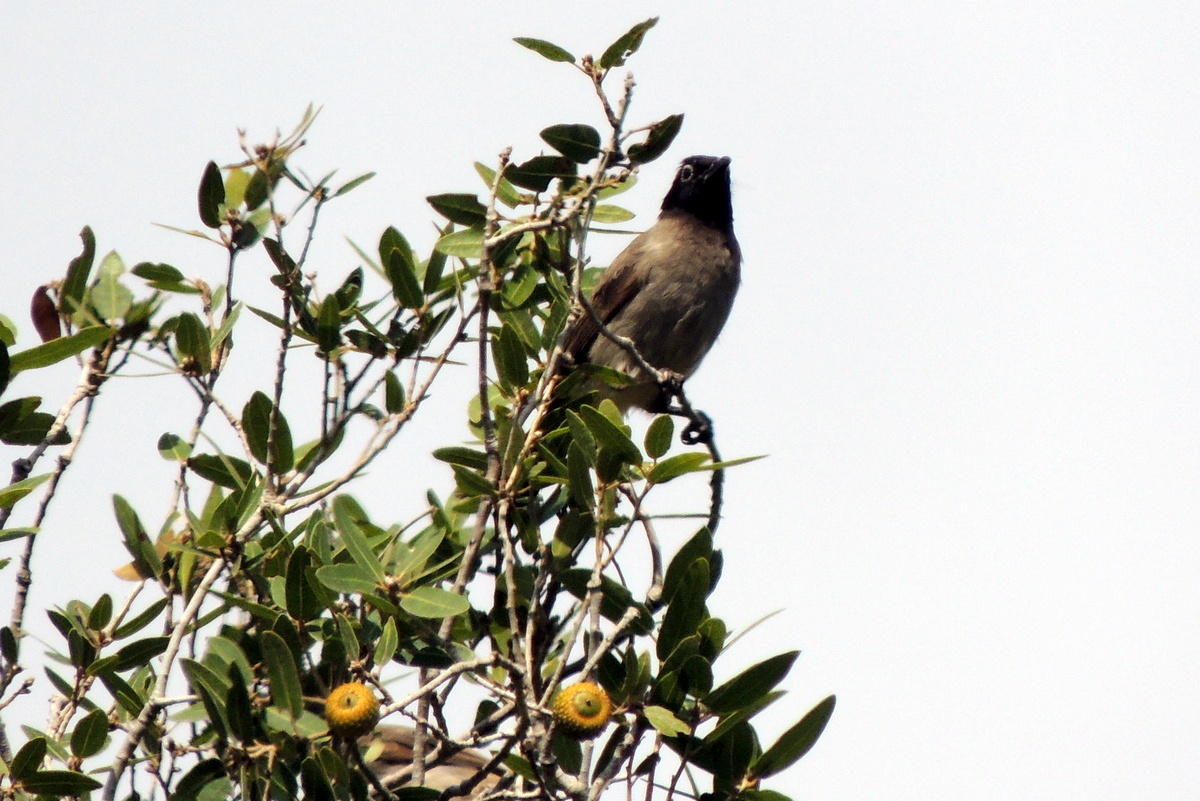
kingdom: Animalia
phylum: Chordata
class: Aves
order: Passeriformes
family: Pycnonotidae
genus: Pycnonotus
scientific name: Pycnonotus xanthopygos
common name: White-spectacled bulbul
